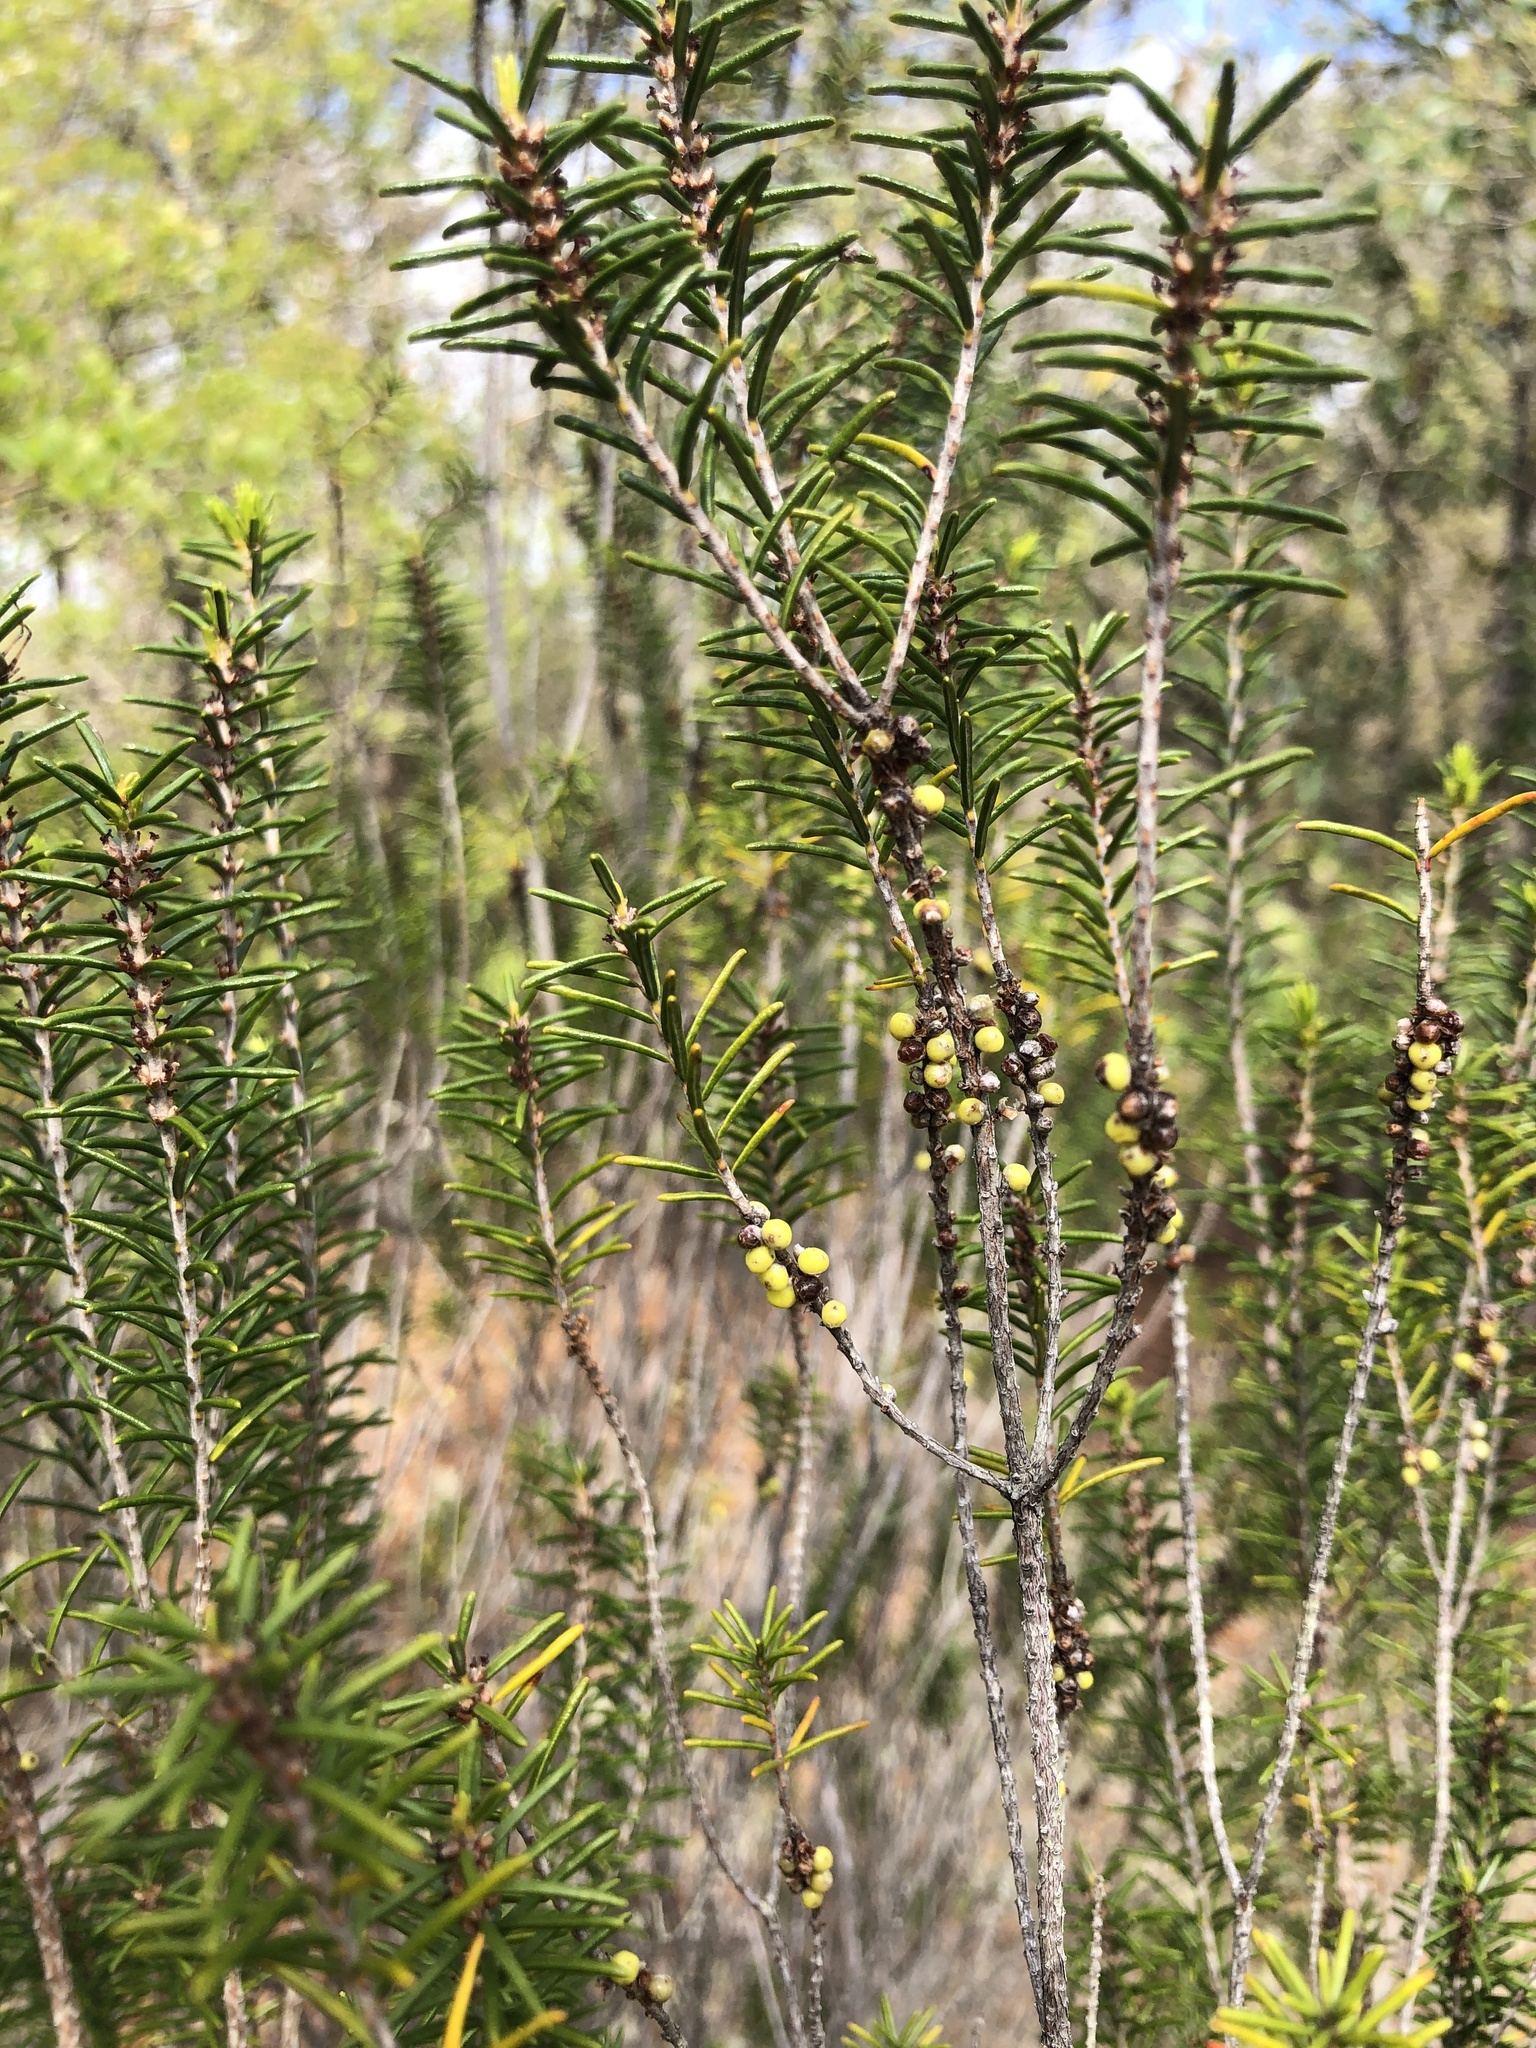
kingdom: Plantae
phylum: Tracheophyta
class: Magnoliopsida
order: Ericales
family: Ericaceae
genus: Ceratiola
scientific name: Ceratiola ericoides
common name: Sandhill-rosemary
